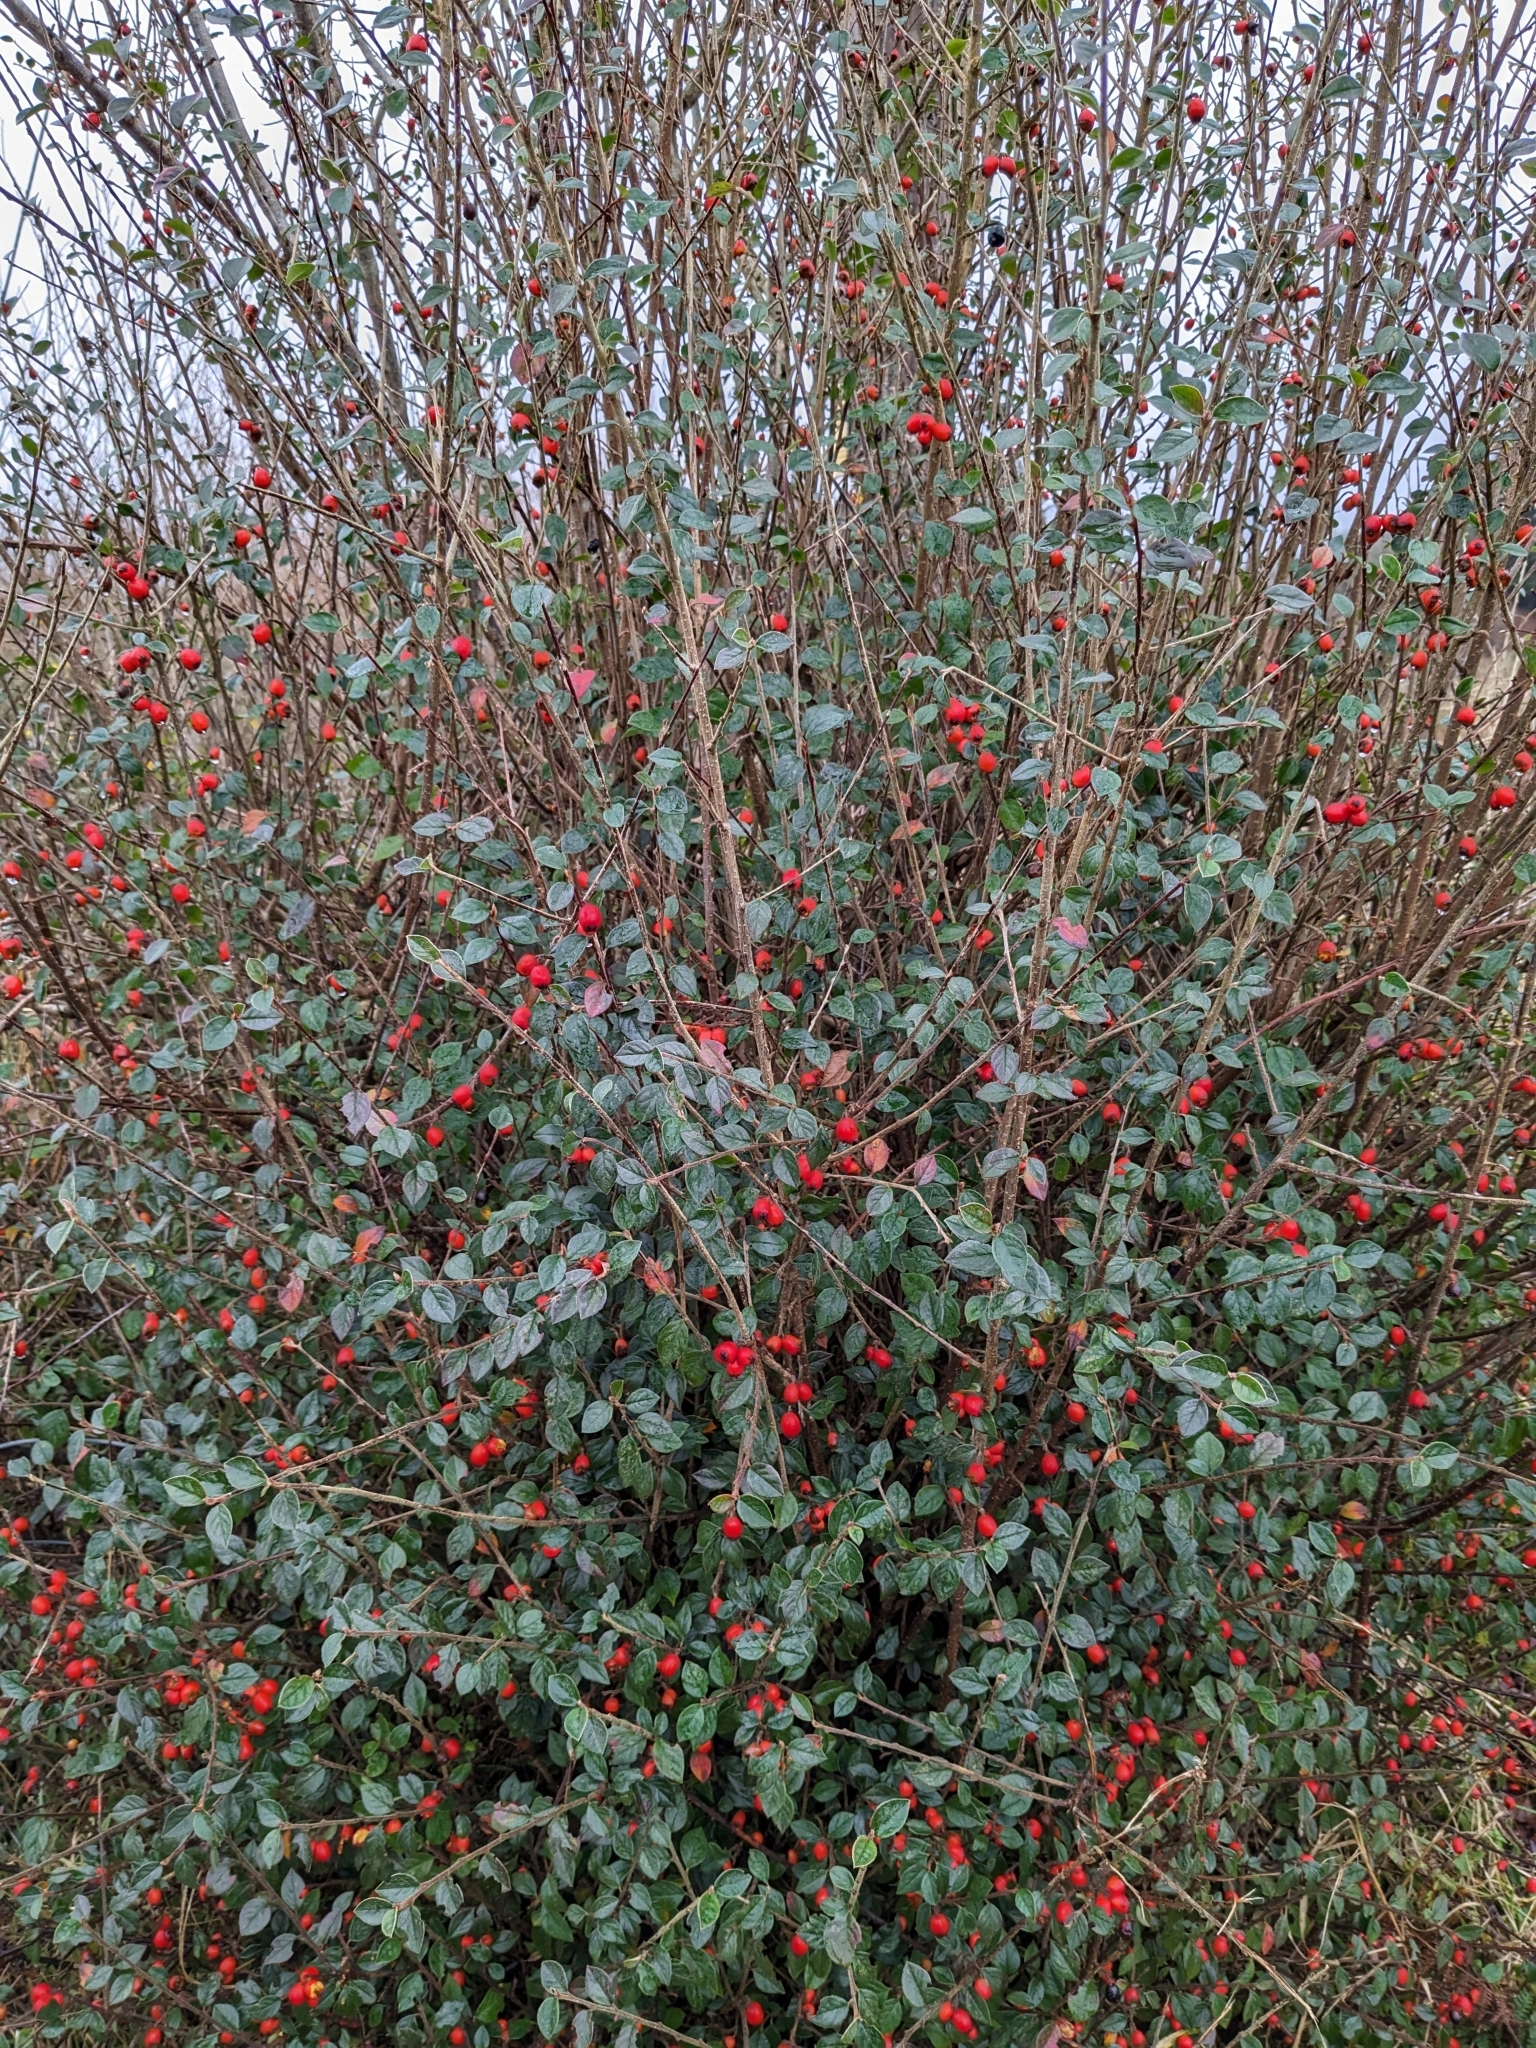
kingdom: Plantae
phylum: Tracheophyta
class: Magnoliopsida
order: Rosales
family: Rosaceae
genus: Cotoneaster
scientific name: Cotoneaster simonsii
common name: Himalayan cotoneaster
